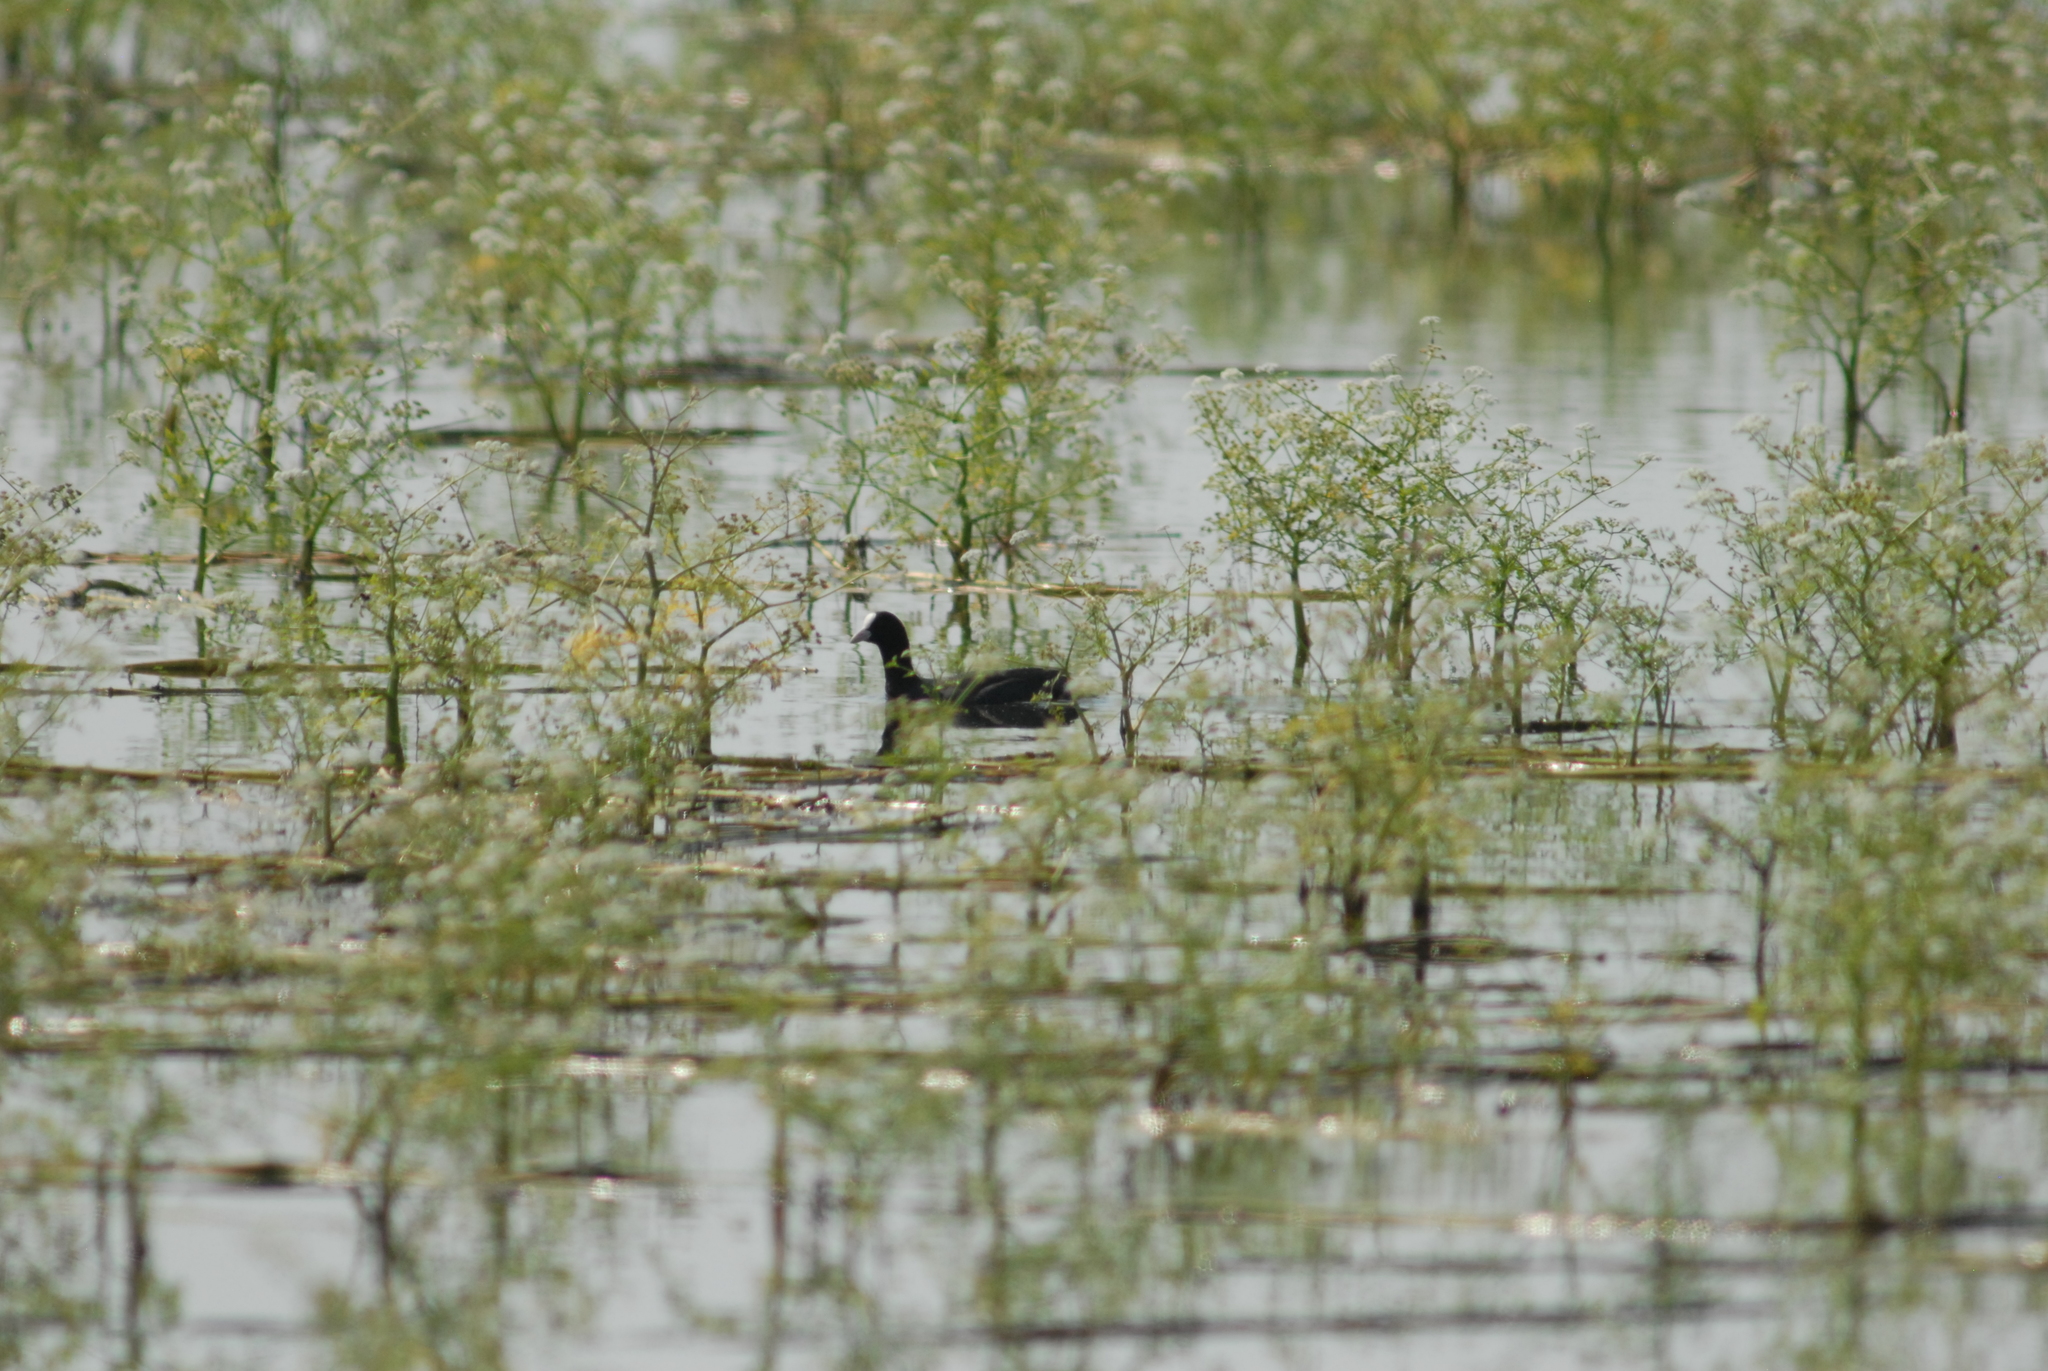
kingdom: Animalia
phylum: Chordata
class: Aves
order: Gruiformes
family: Rallidae
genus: Fulica
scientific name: Fulica atra
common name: Eurasian coot
